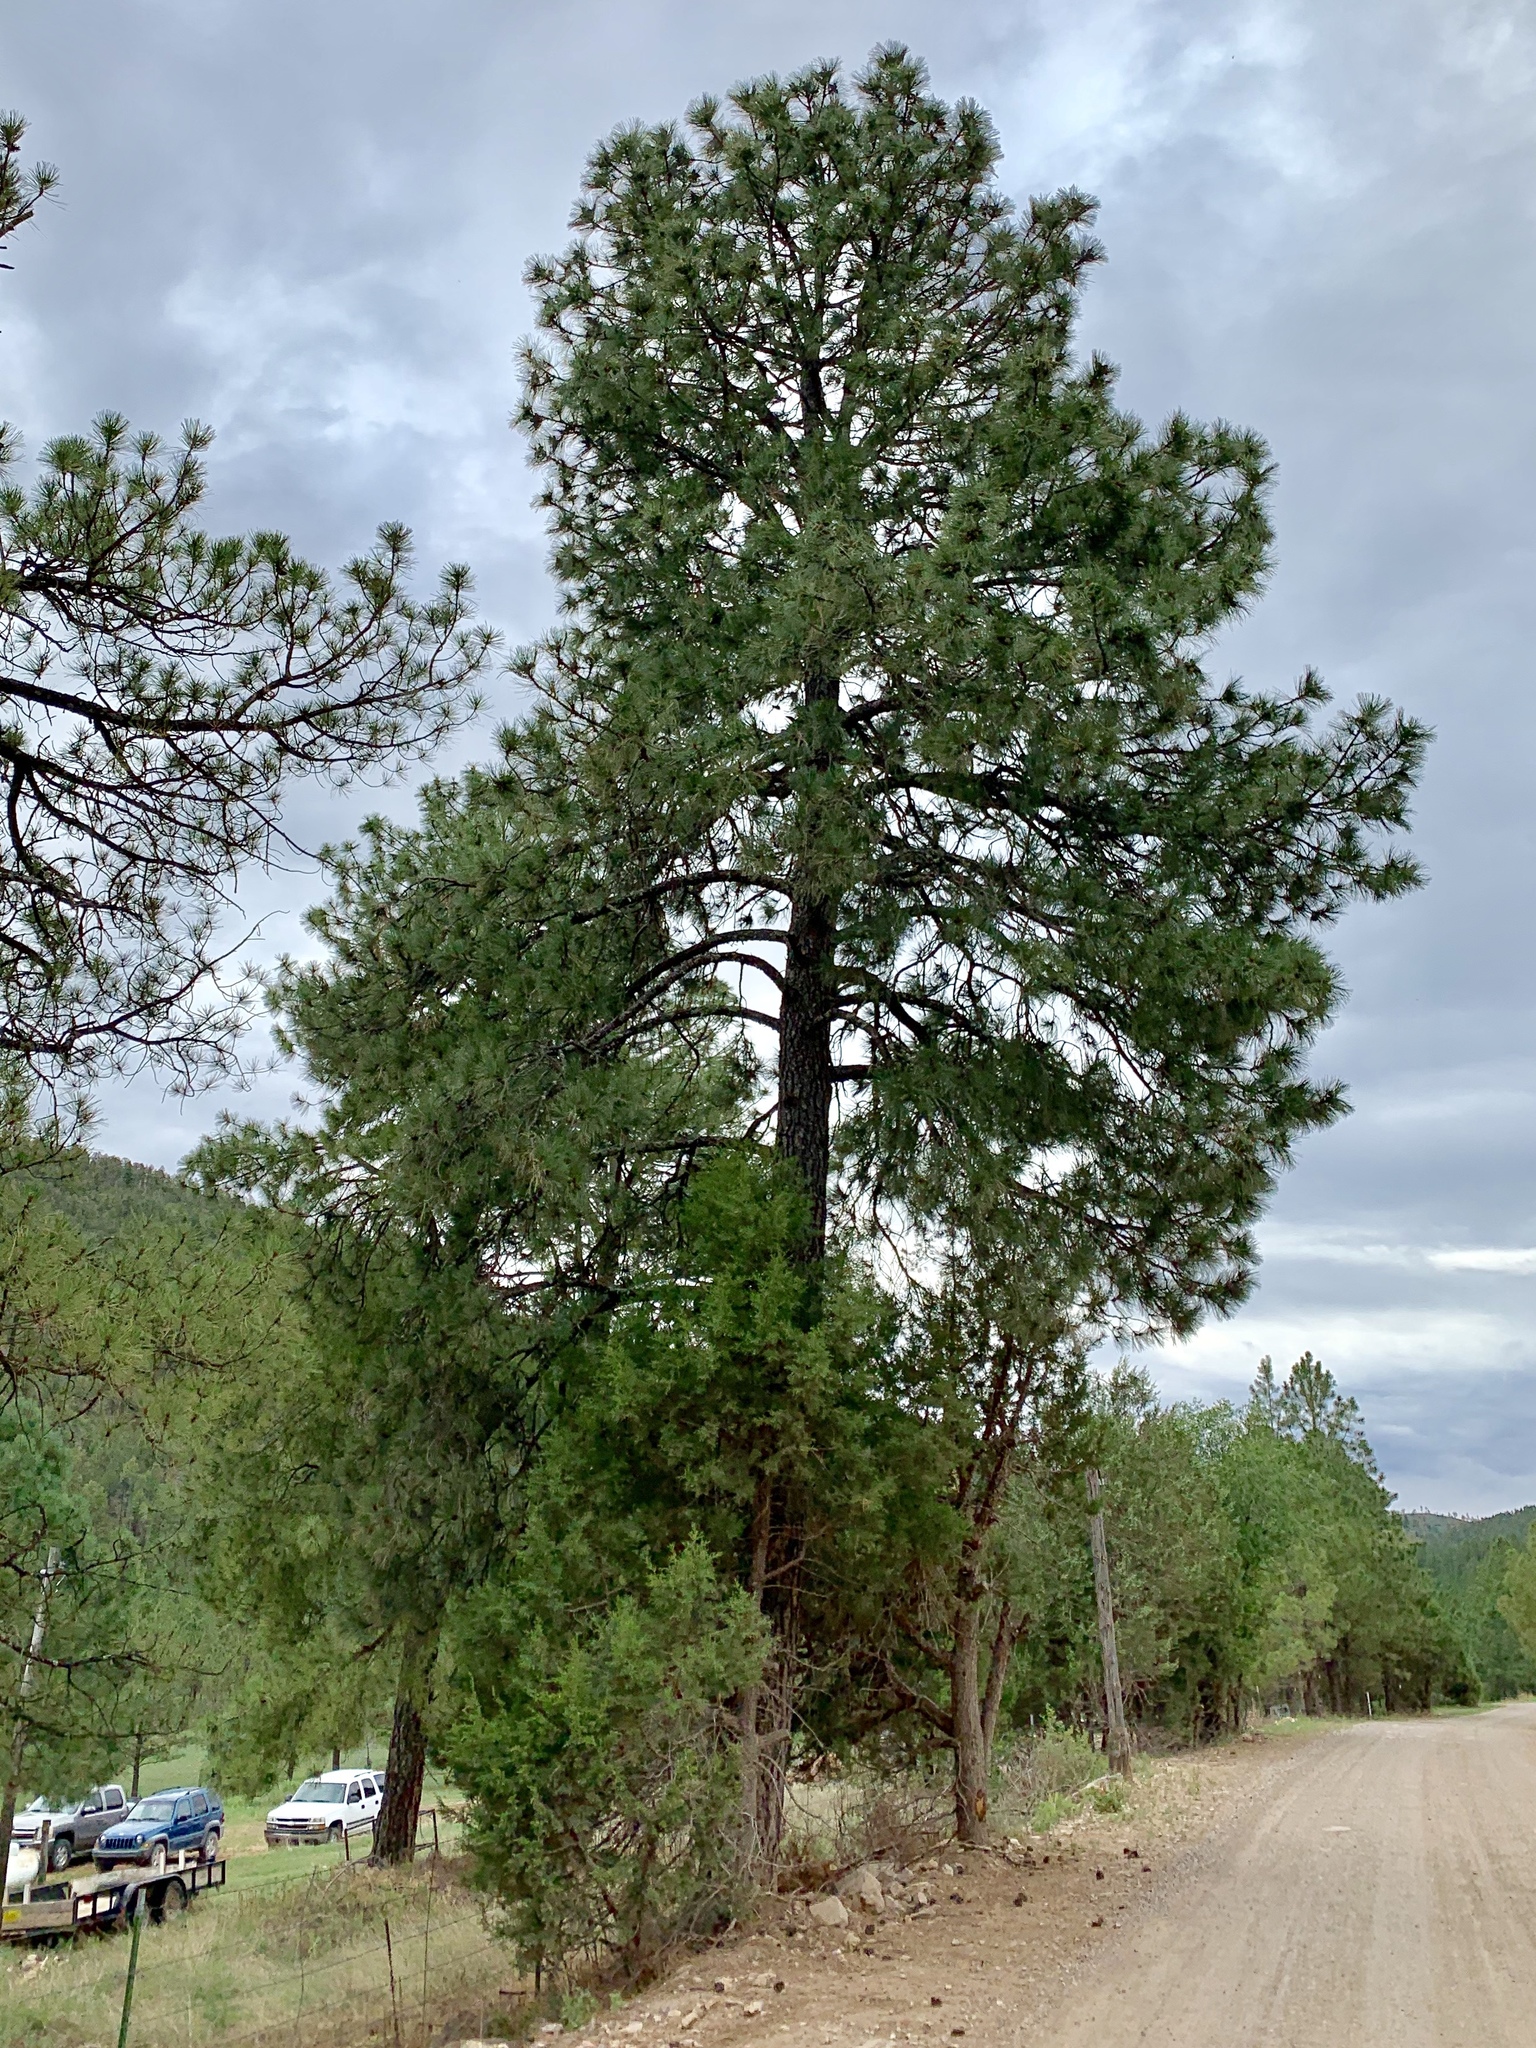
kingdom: Plantae
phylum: Tracheophyta
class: Pinopsida
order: Pinales
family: Pinaceae
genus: Pinus
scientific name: Pinus ponderosa
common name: Western yellow-pine
